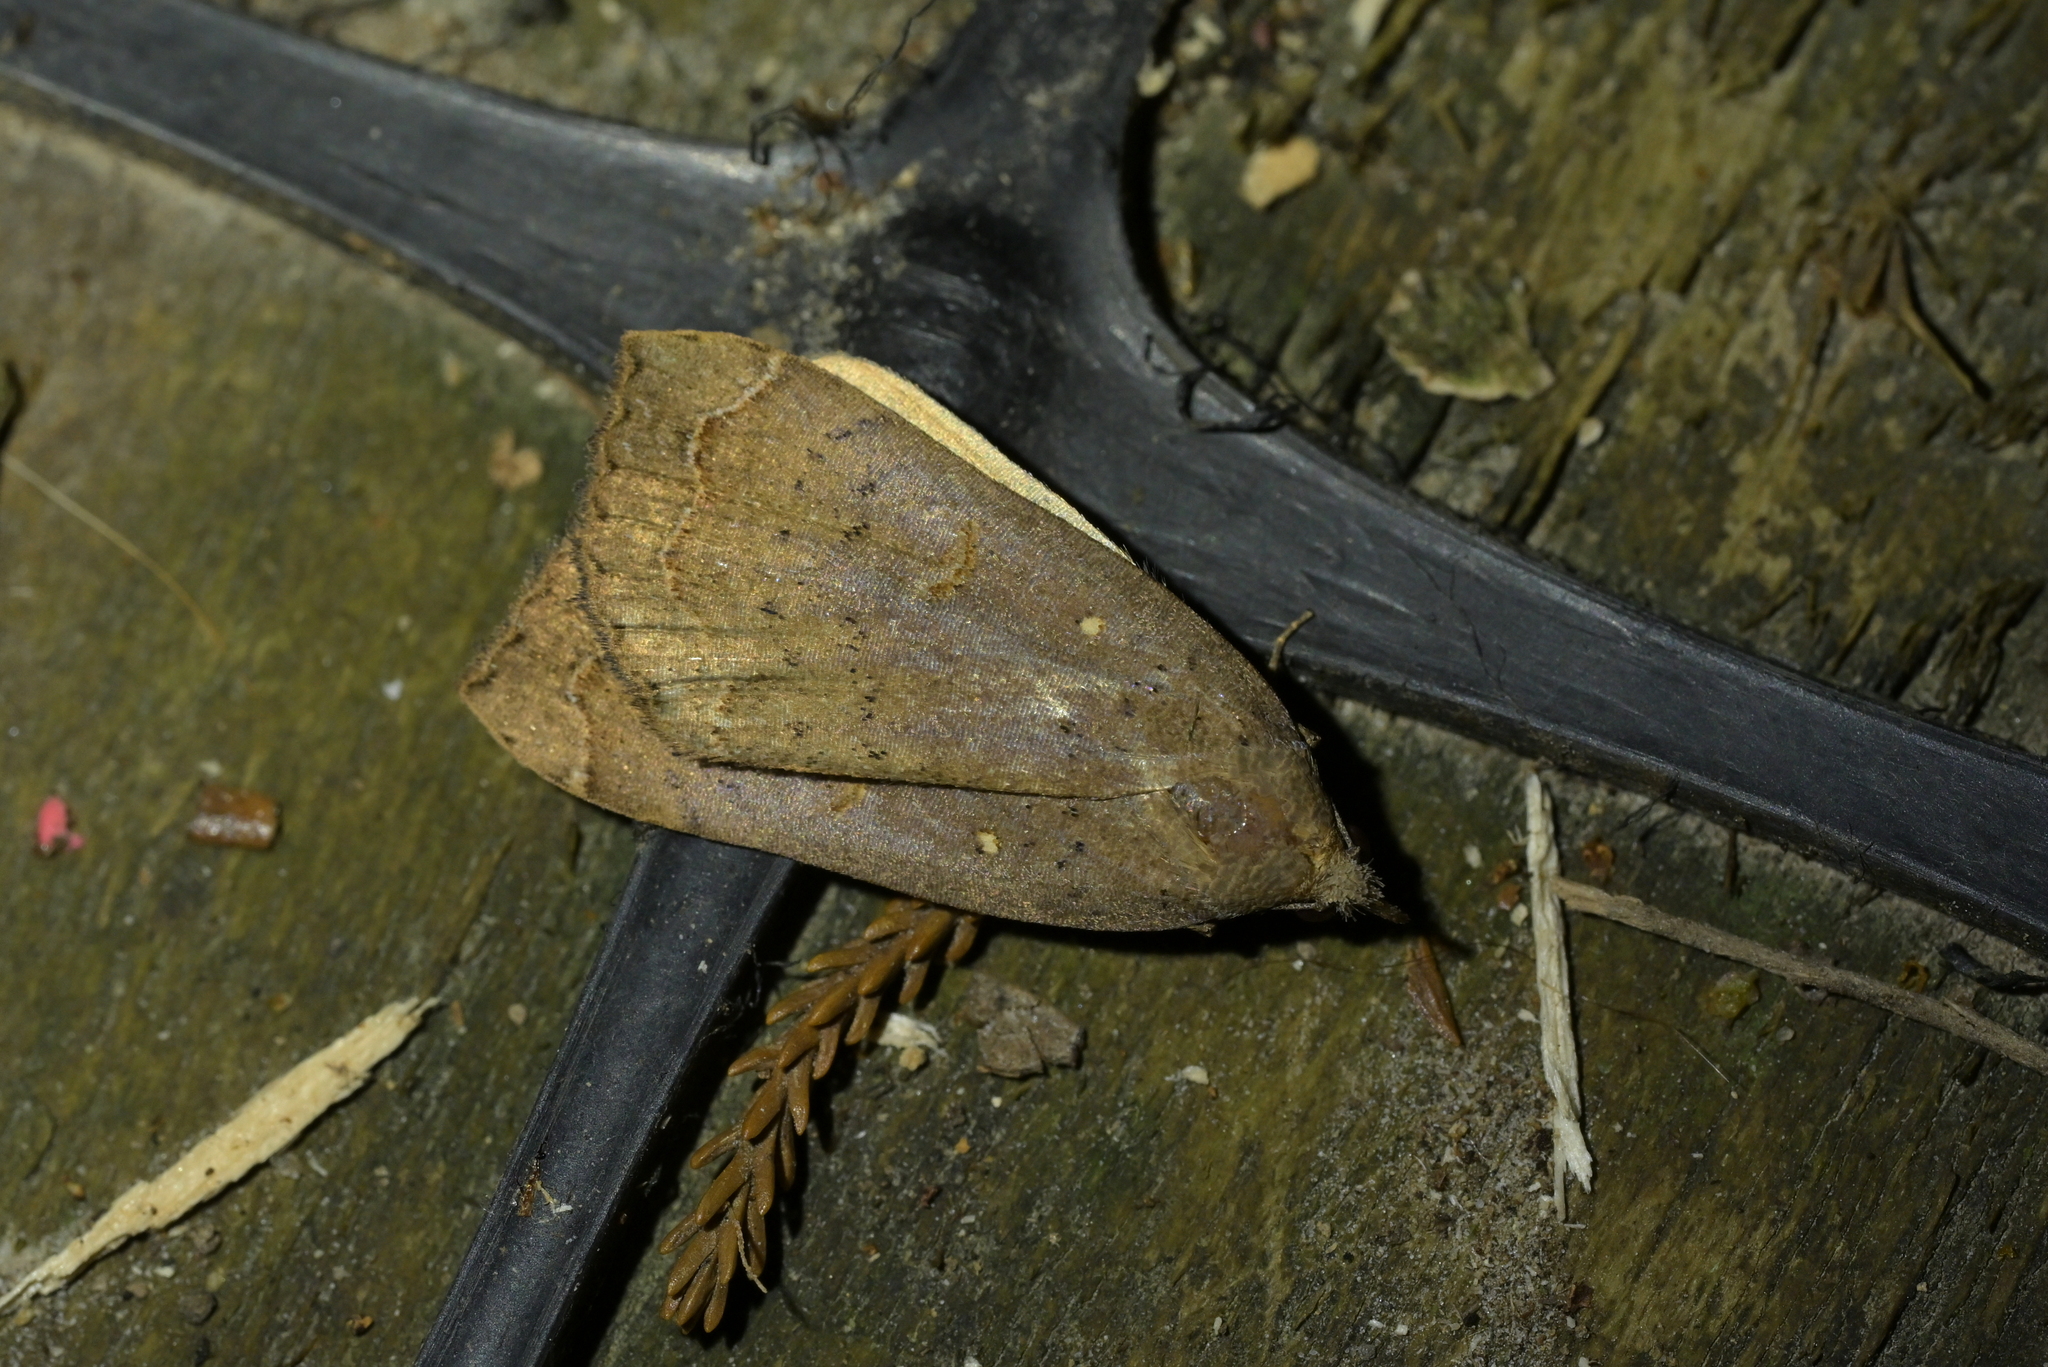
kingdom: Animalia
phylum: Arthropoda
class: Insecta
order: Lepidoptera
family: Erebidae
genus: Rhapsa
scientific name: Rhapsa scotosialis
